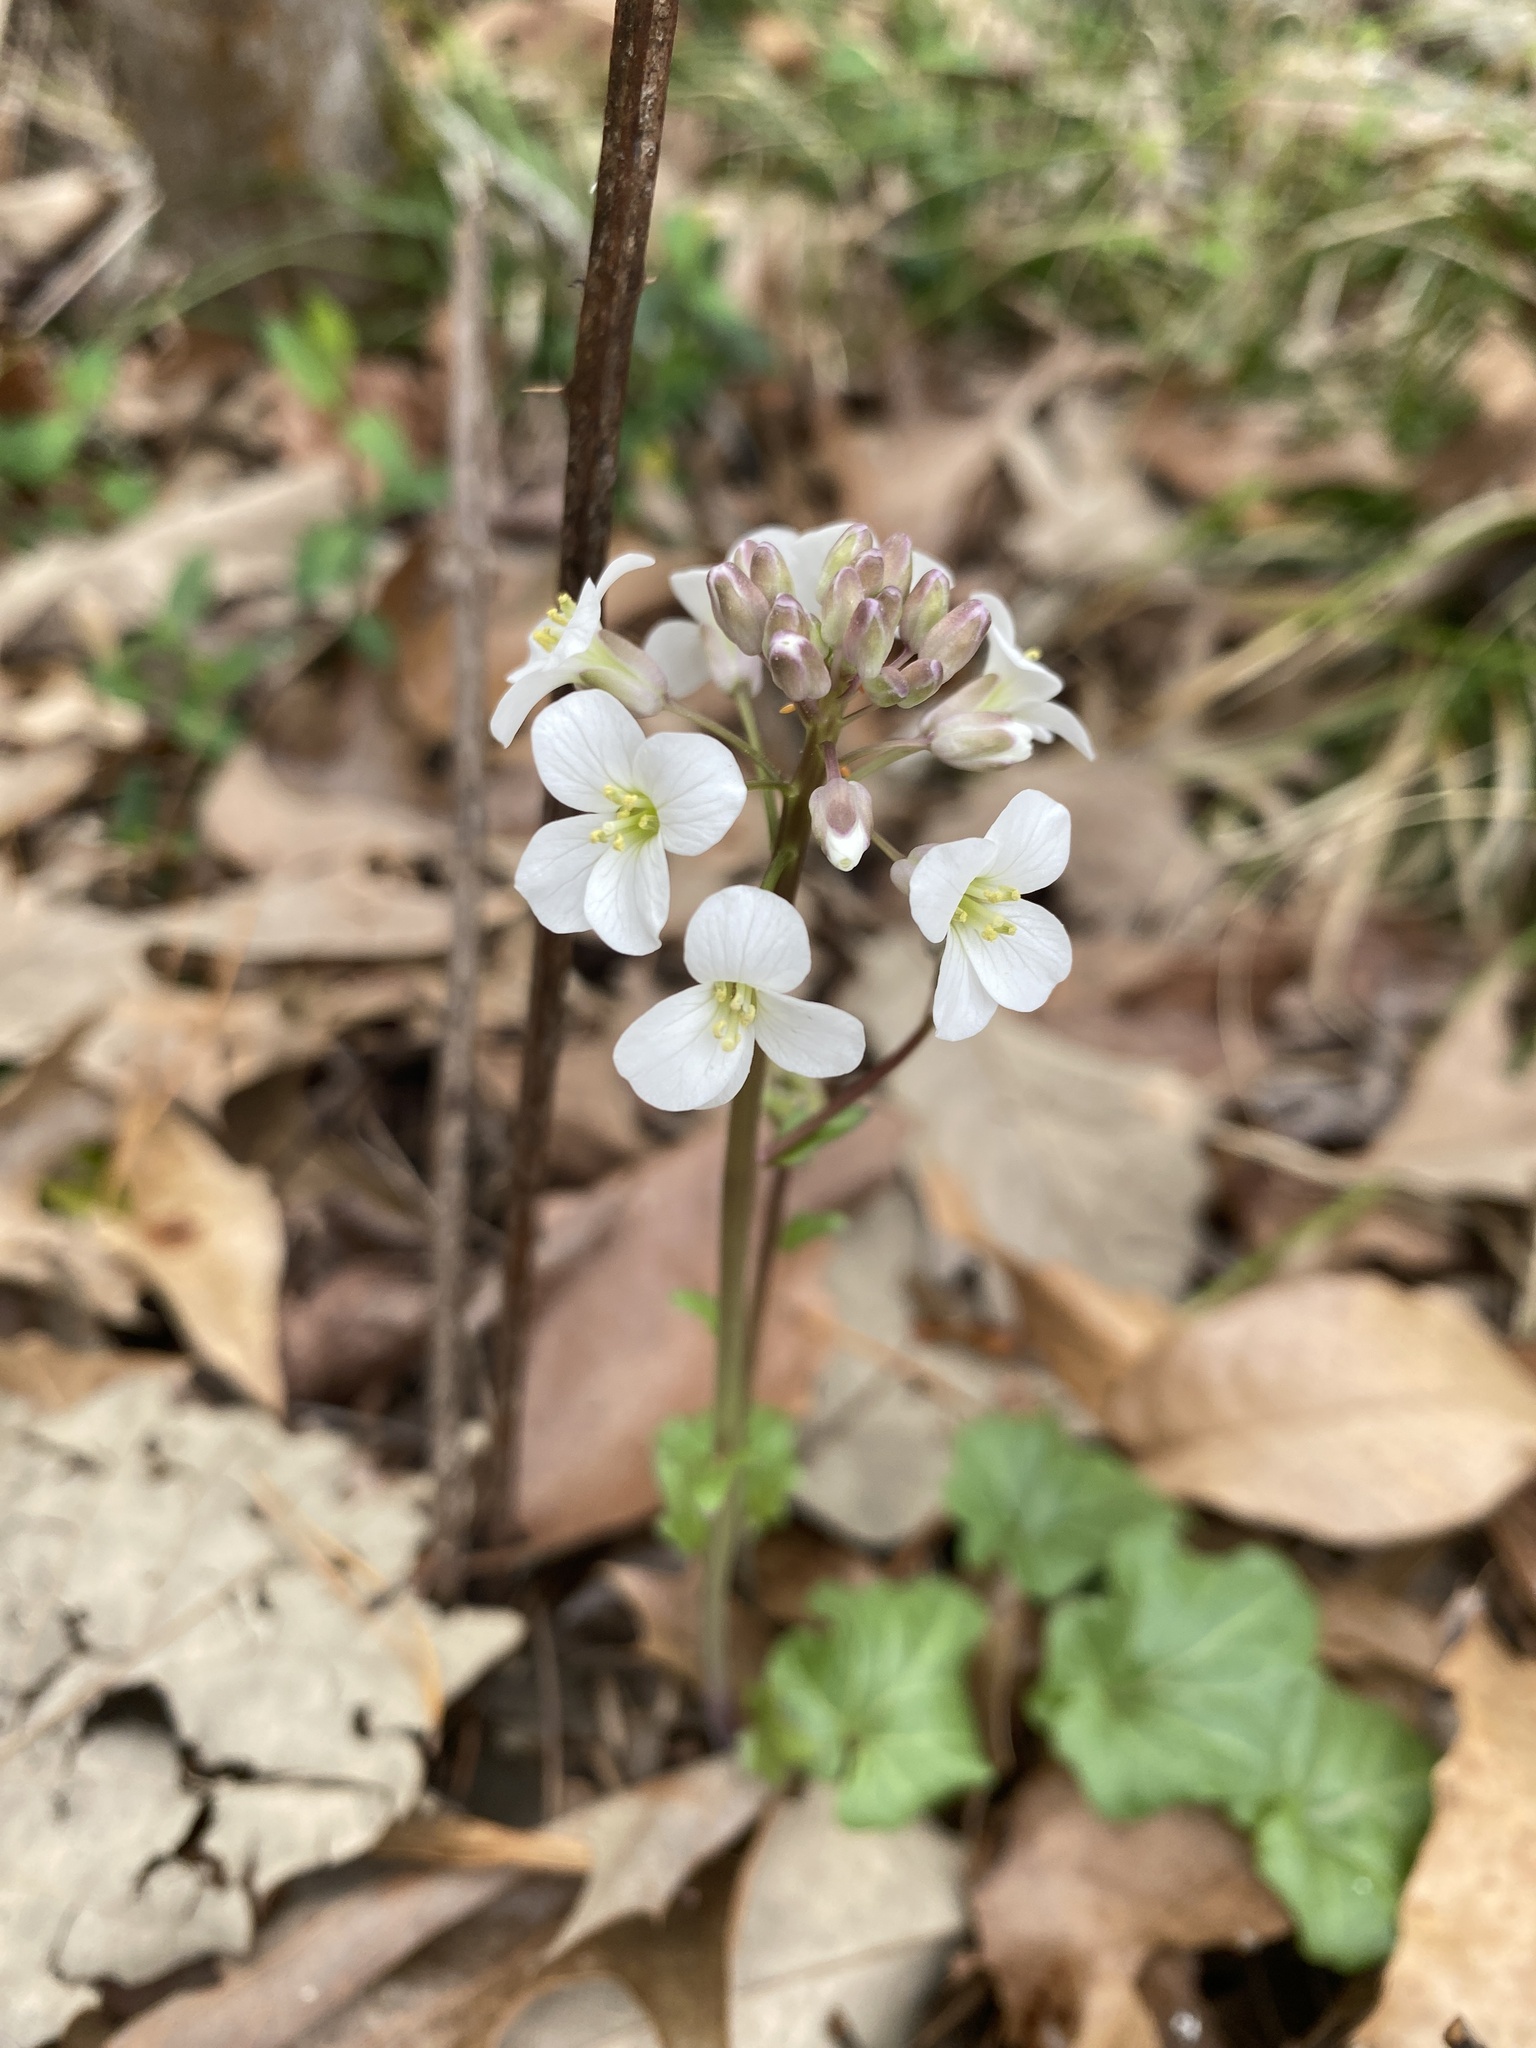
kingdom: Plantae
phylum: Tracheophyta
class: Magnoliopsida
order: Brassicales
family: Brassicaceae
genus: Cardamine
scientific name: Cardamine bulbosa
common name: Spring cress
